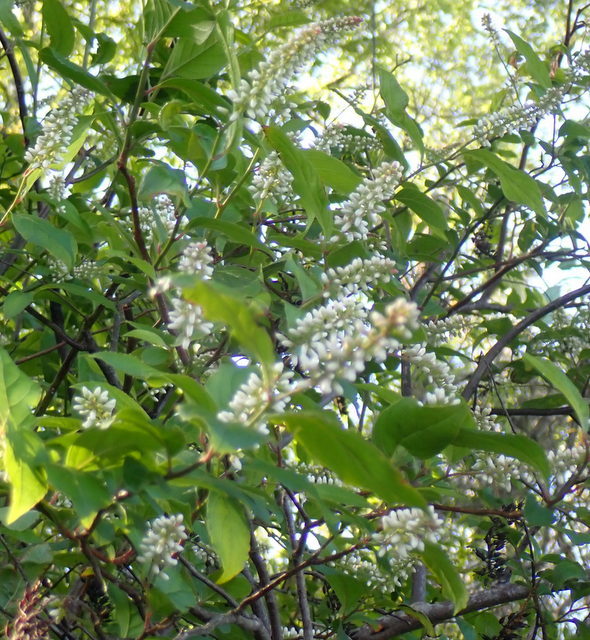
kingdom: Plantae
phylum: Tracheophyta
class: Magnoliopsida
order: Saxifragales
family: Iteaceae
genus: Itea
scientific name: Itea virginica
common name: Sweetspire
